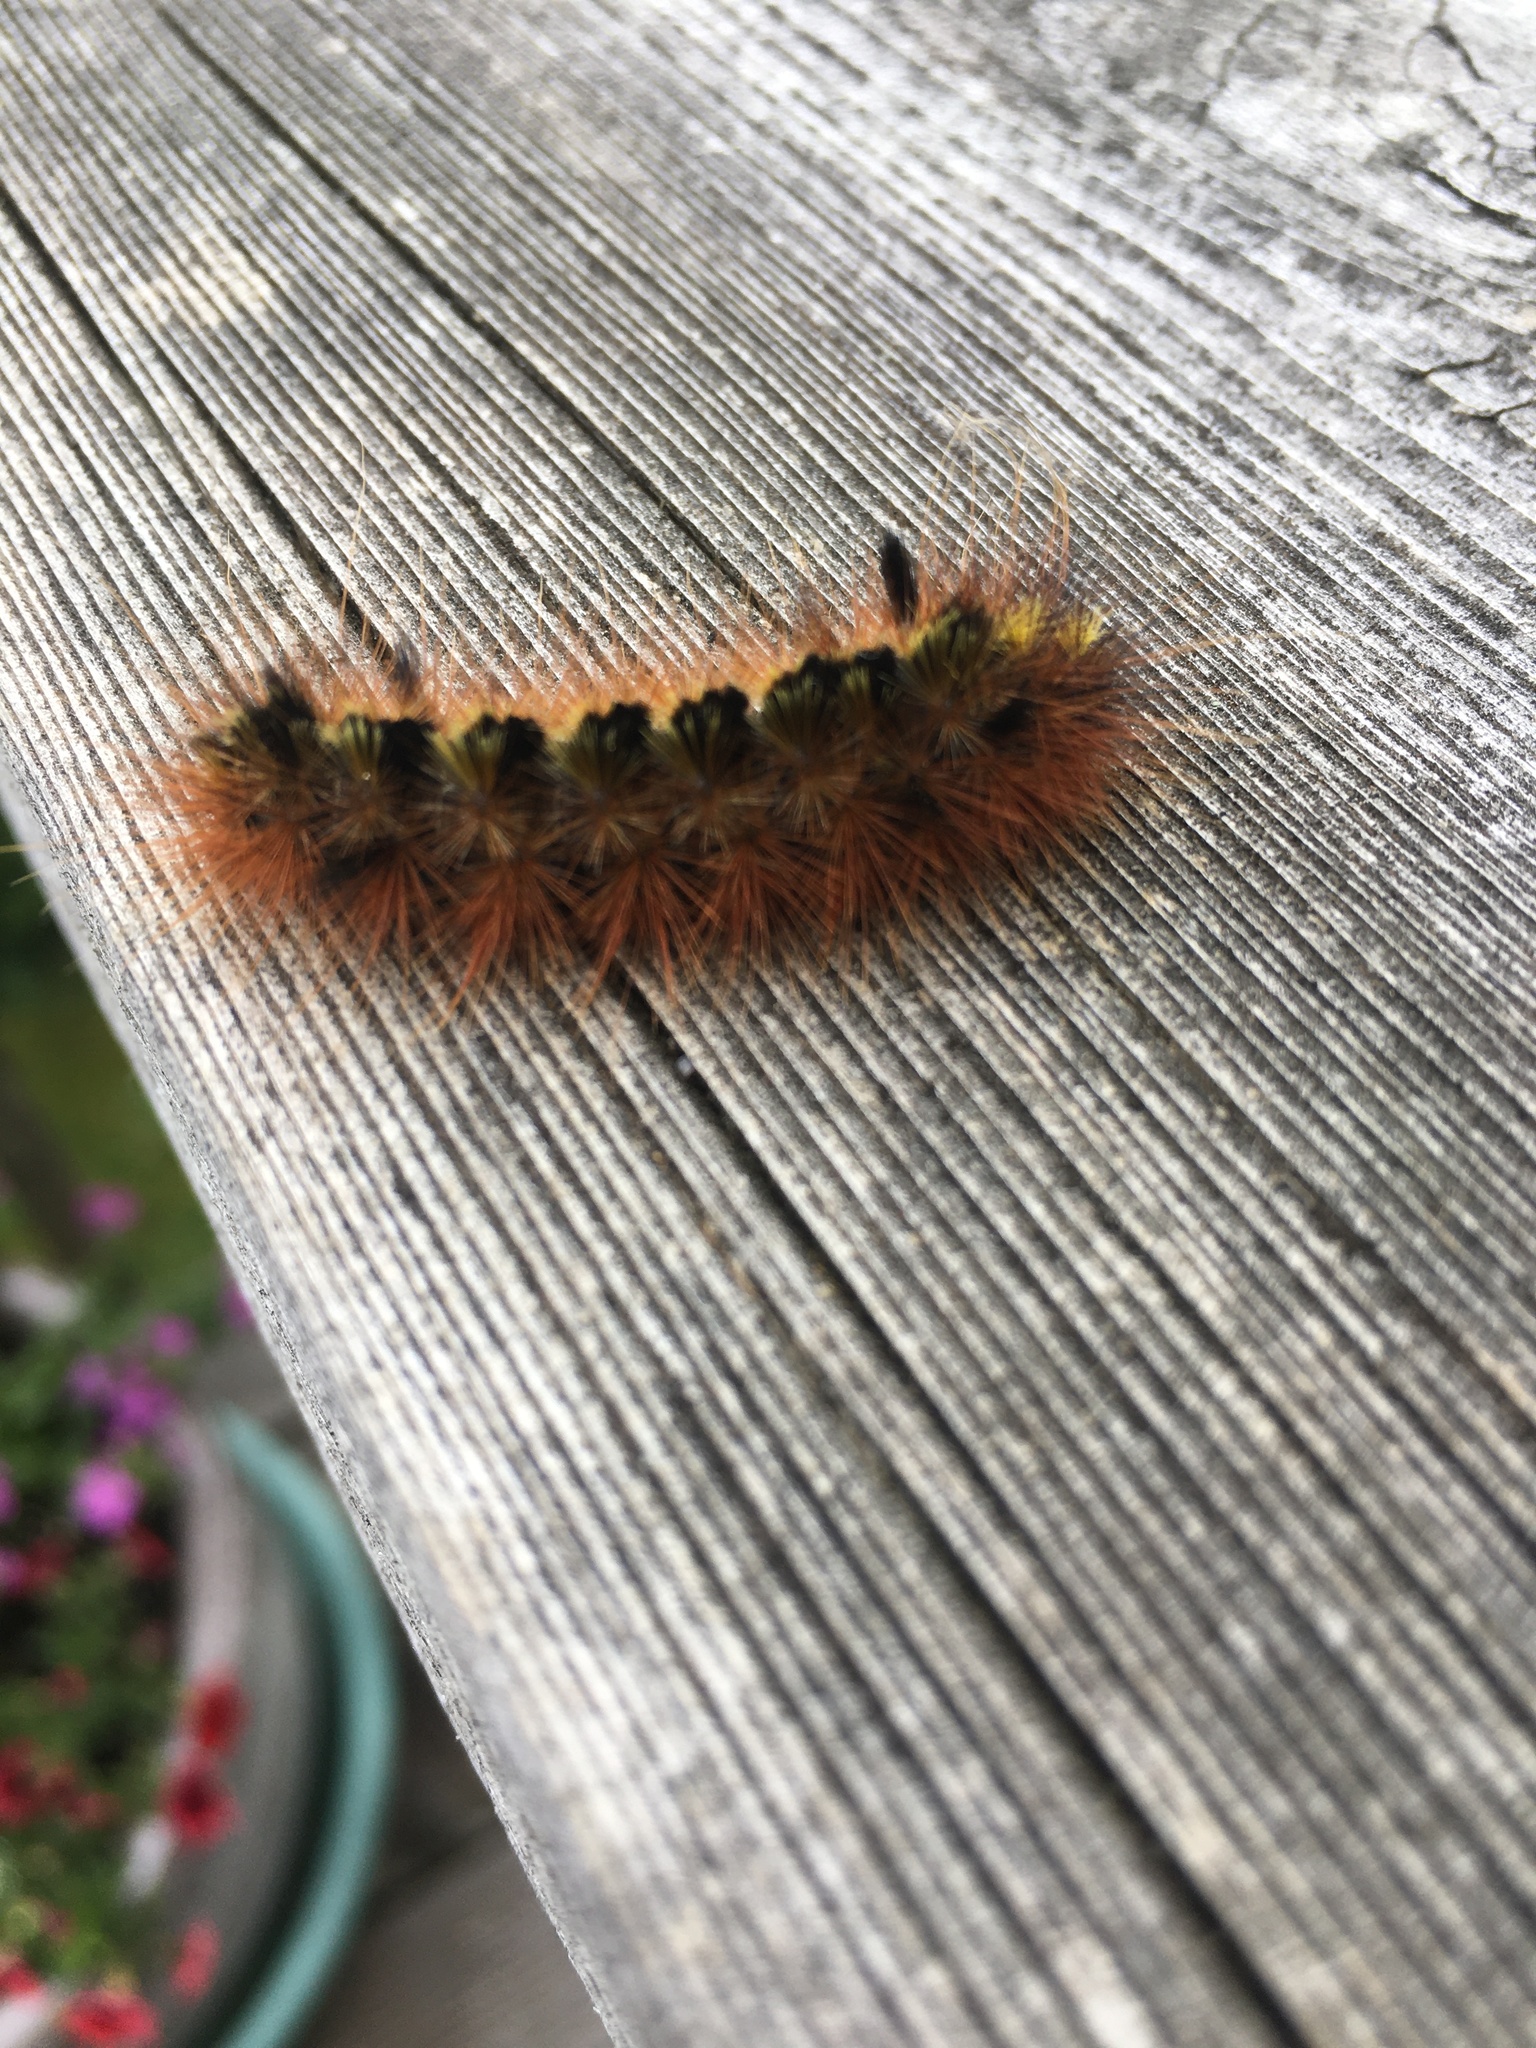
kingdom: Animalia
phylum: Arthropoda
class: Insecta
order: Lepidoptera
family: Erebidae
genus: Lophocampa
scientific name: Lophocampa argentata
